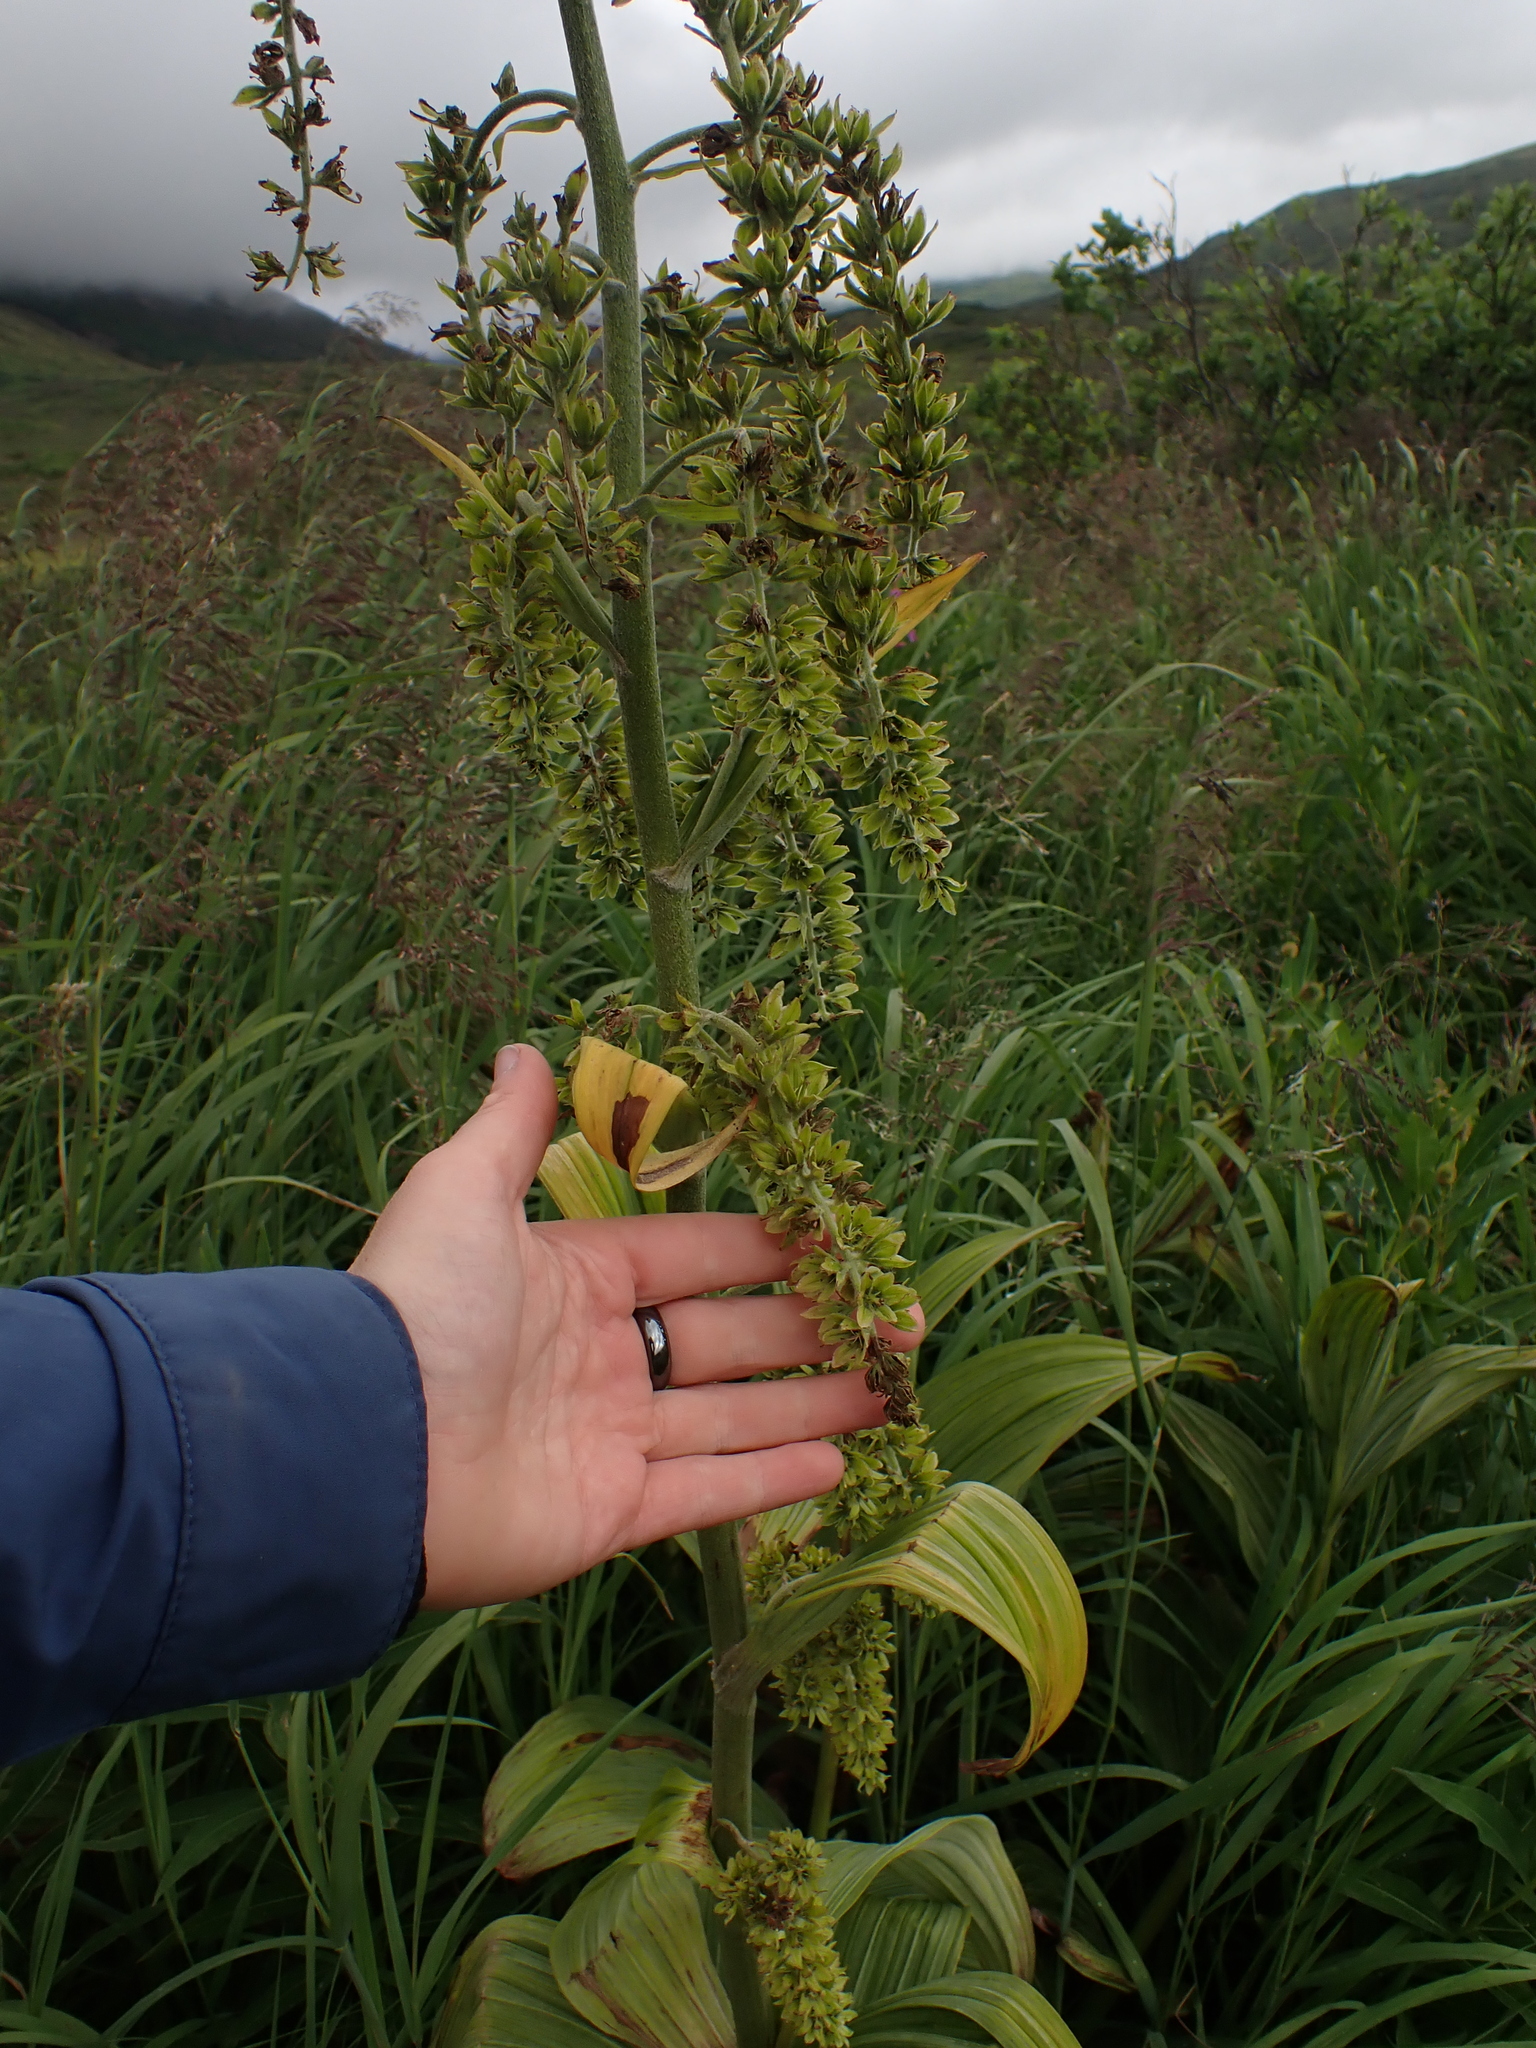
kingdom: Plantae
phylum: Tracheophyta
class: Liliopsida
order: Liliales
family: Melanthiaceae
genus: Veratrum
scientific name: Veratrum viride
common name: American false hellebore
